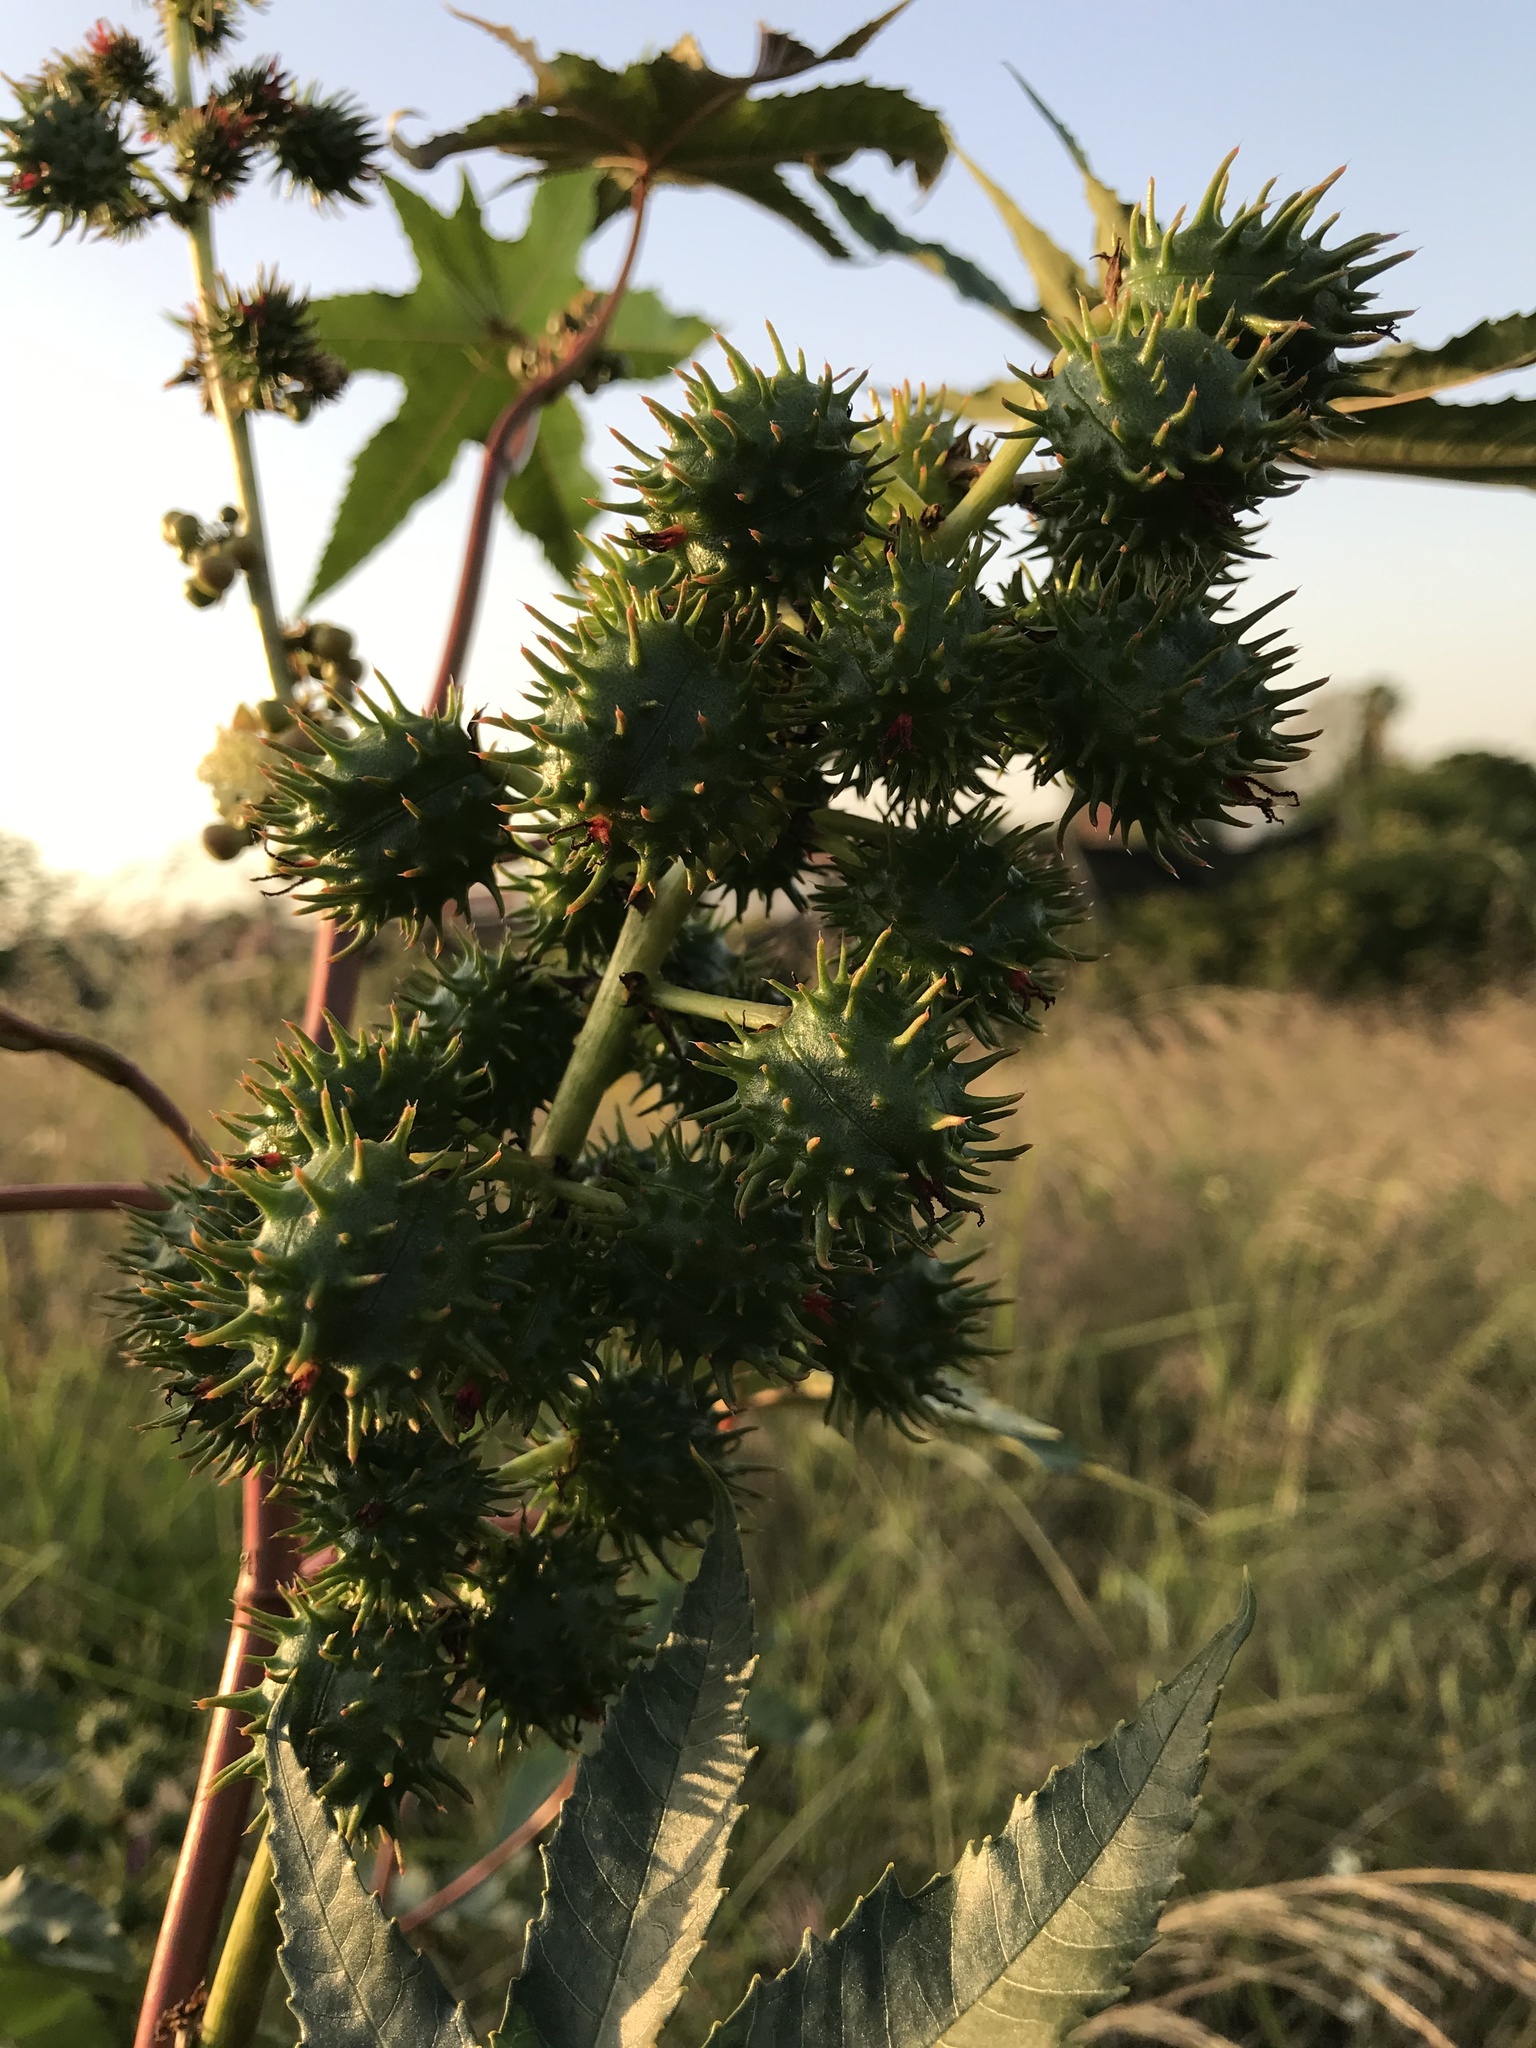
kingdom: Plantae
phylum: Tracheophyta
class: Magnoliopsida
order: Malpighiales
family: Euphorbiaceae
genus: Ricinus
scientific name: Ricinus communis
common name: Castor-oil-plant
